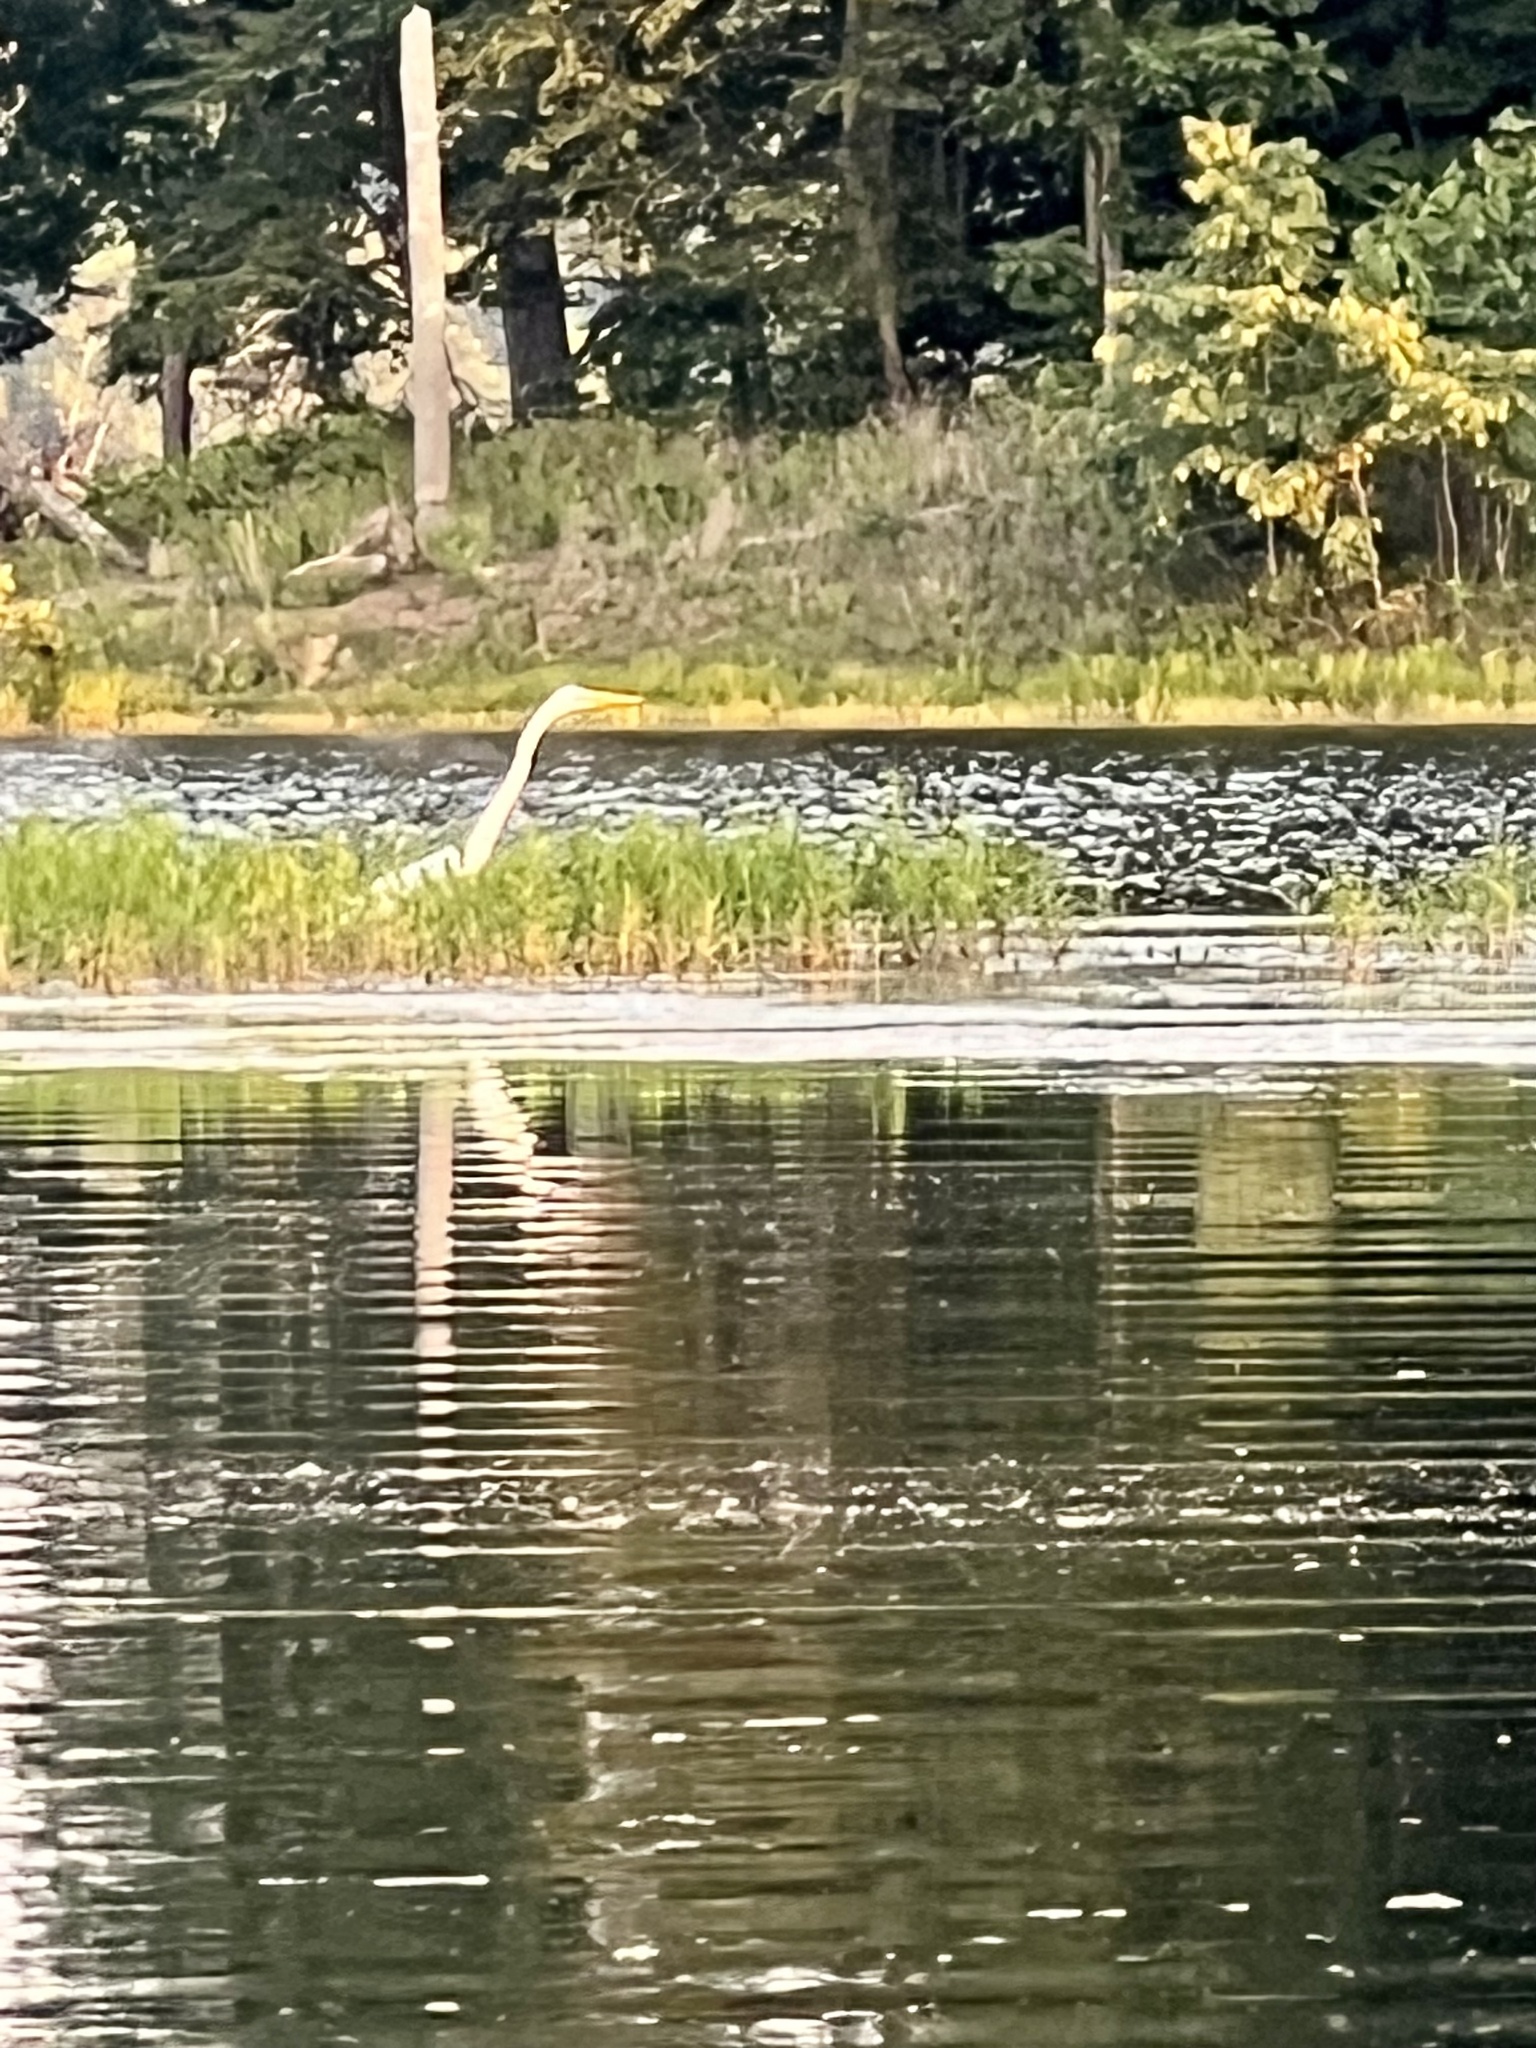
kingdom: Animalia
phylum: Chordata
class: Aves
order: Pelecaniformes
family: Ardeidae
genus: Ardea
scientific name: Ardea alba
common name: Great egret
